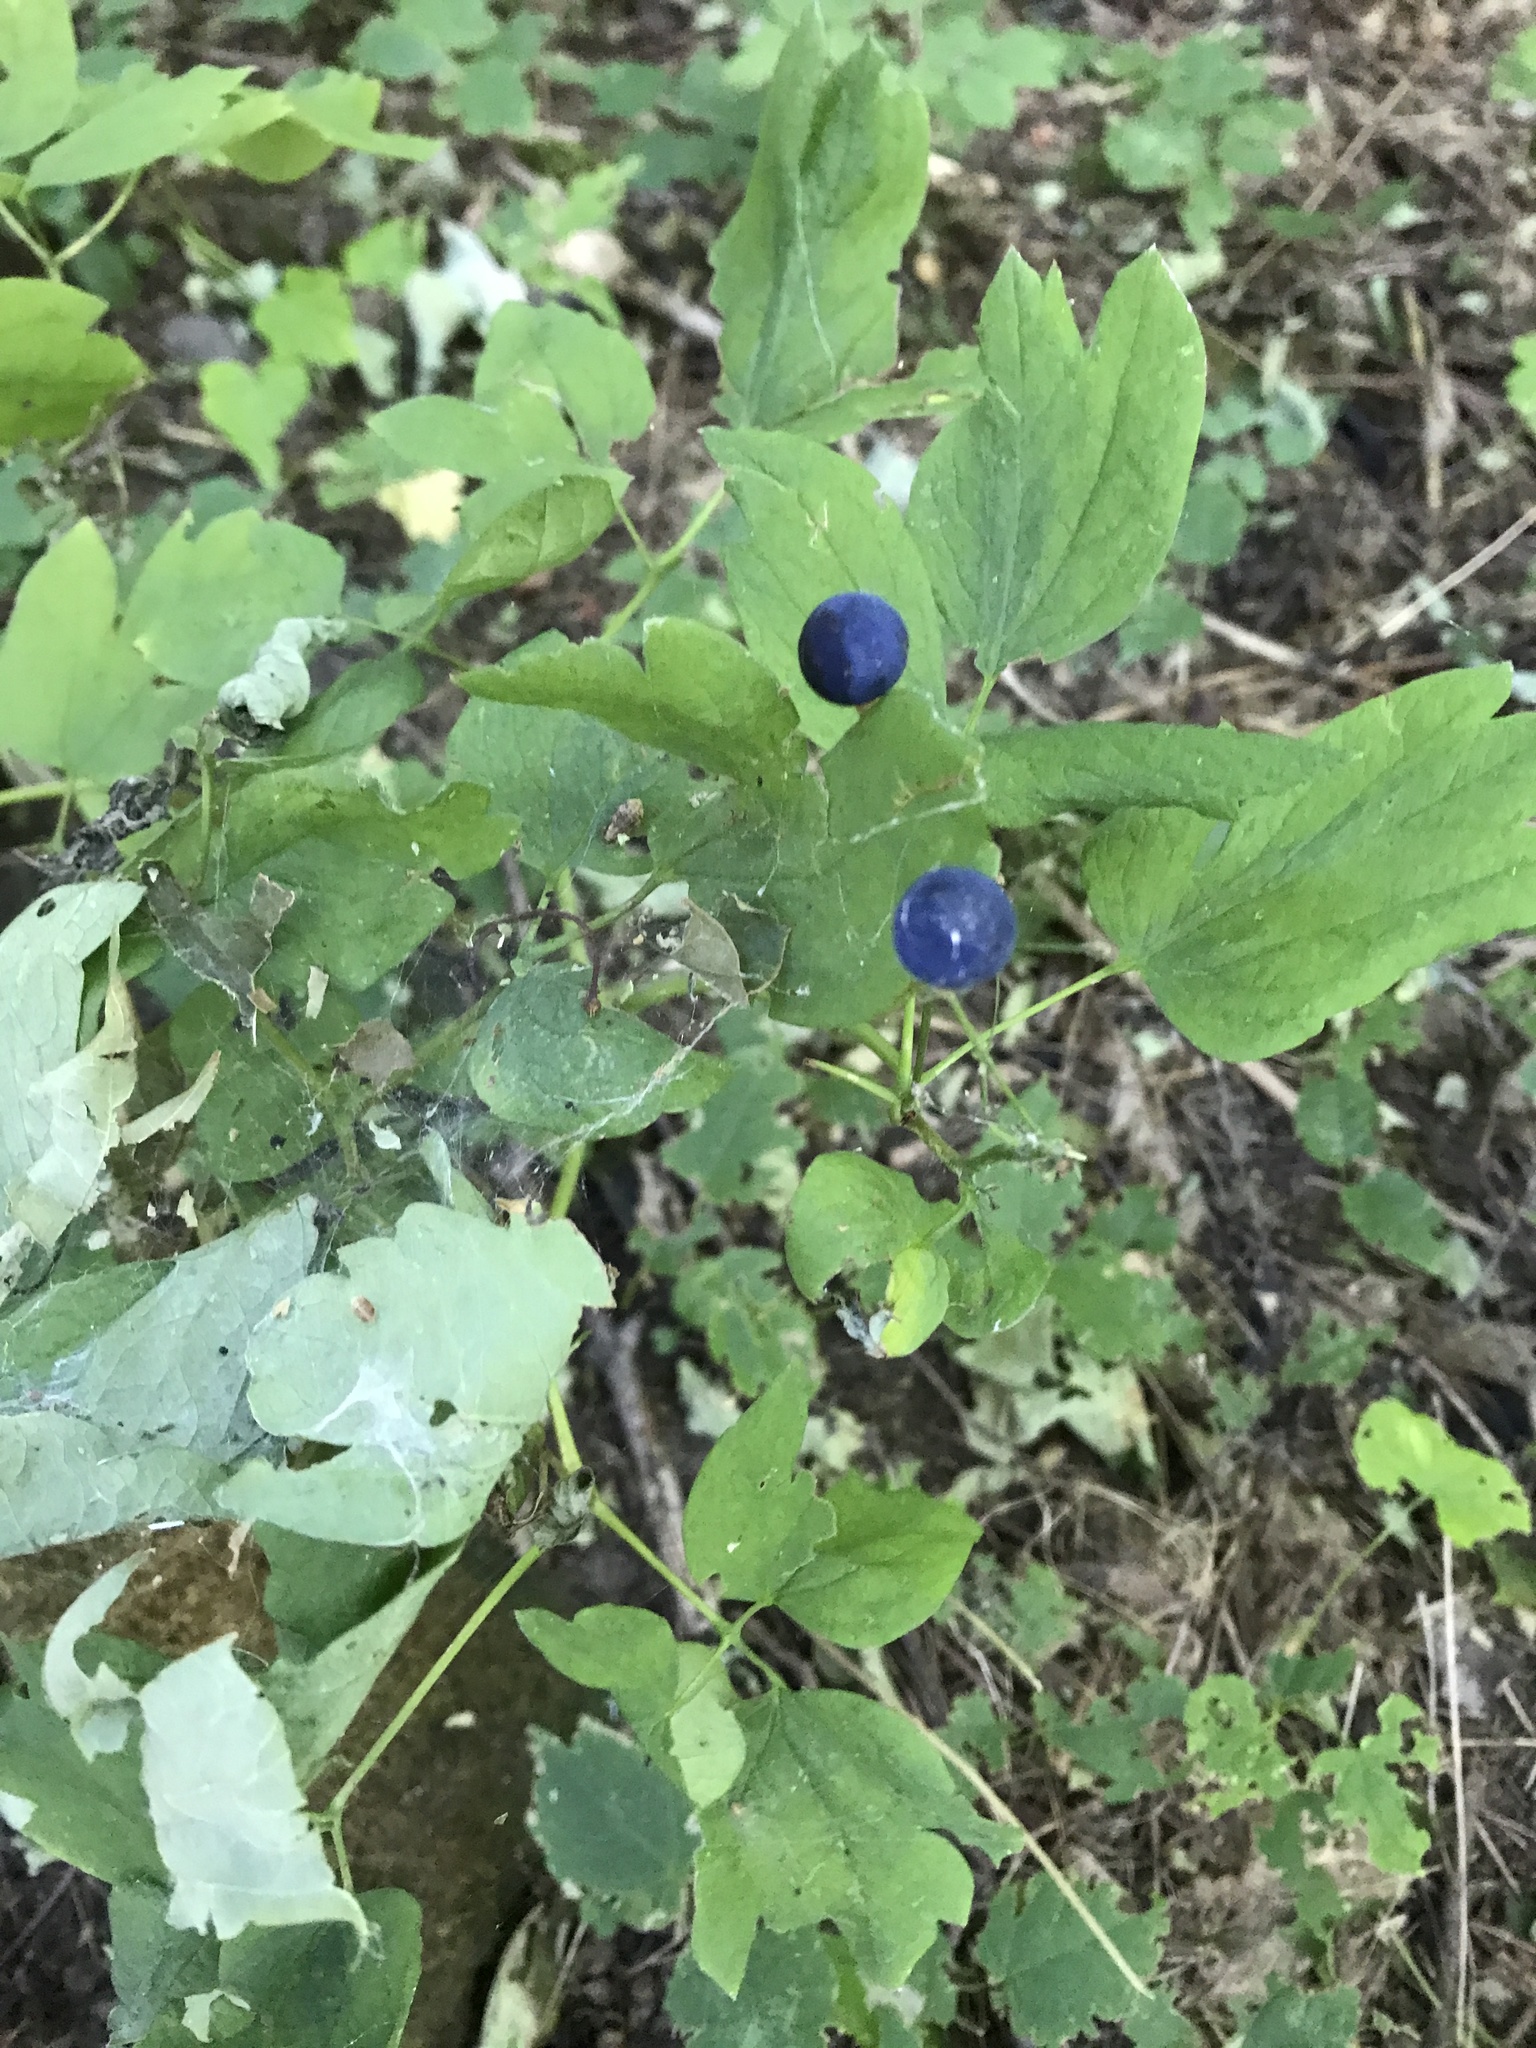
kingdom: Plantae
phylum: Tracheophyta
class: Magnoliopsida
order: Ranunculales
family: Berberidaceae
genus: Caulophyllum
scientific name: Caulophyllum thalictroides
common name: Blue cohosh
